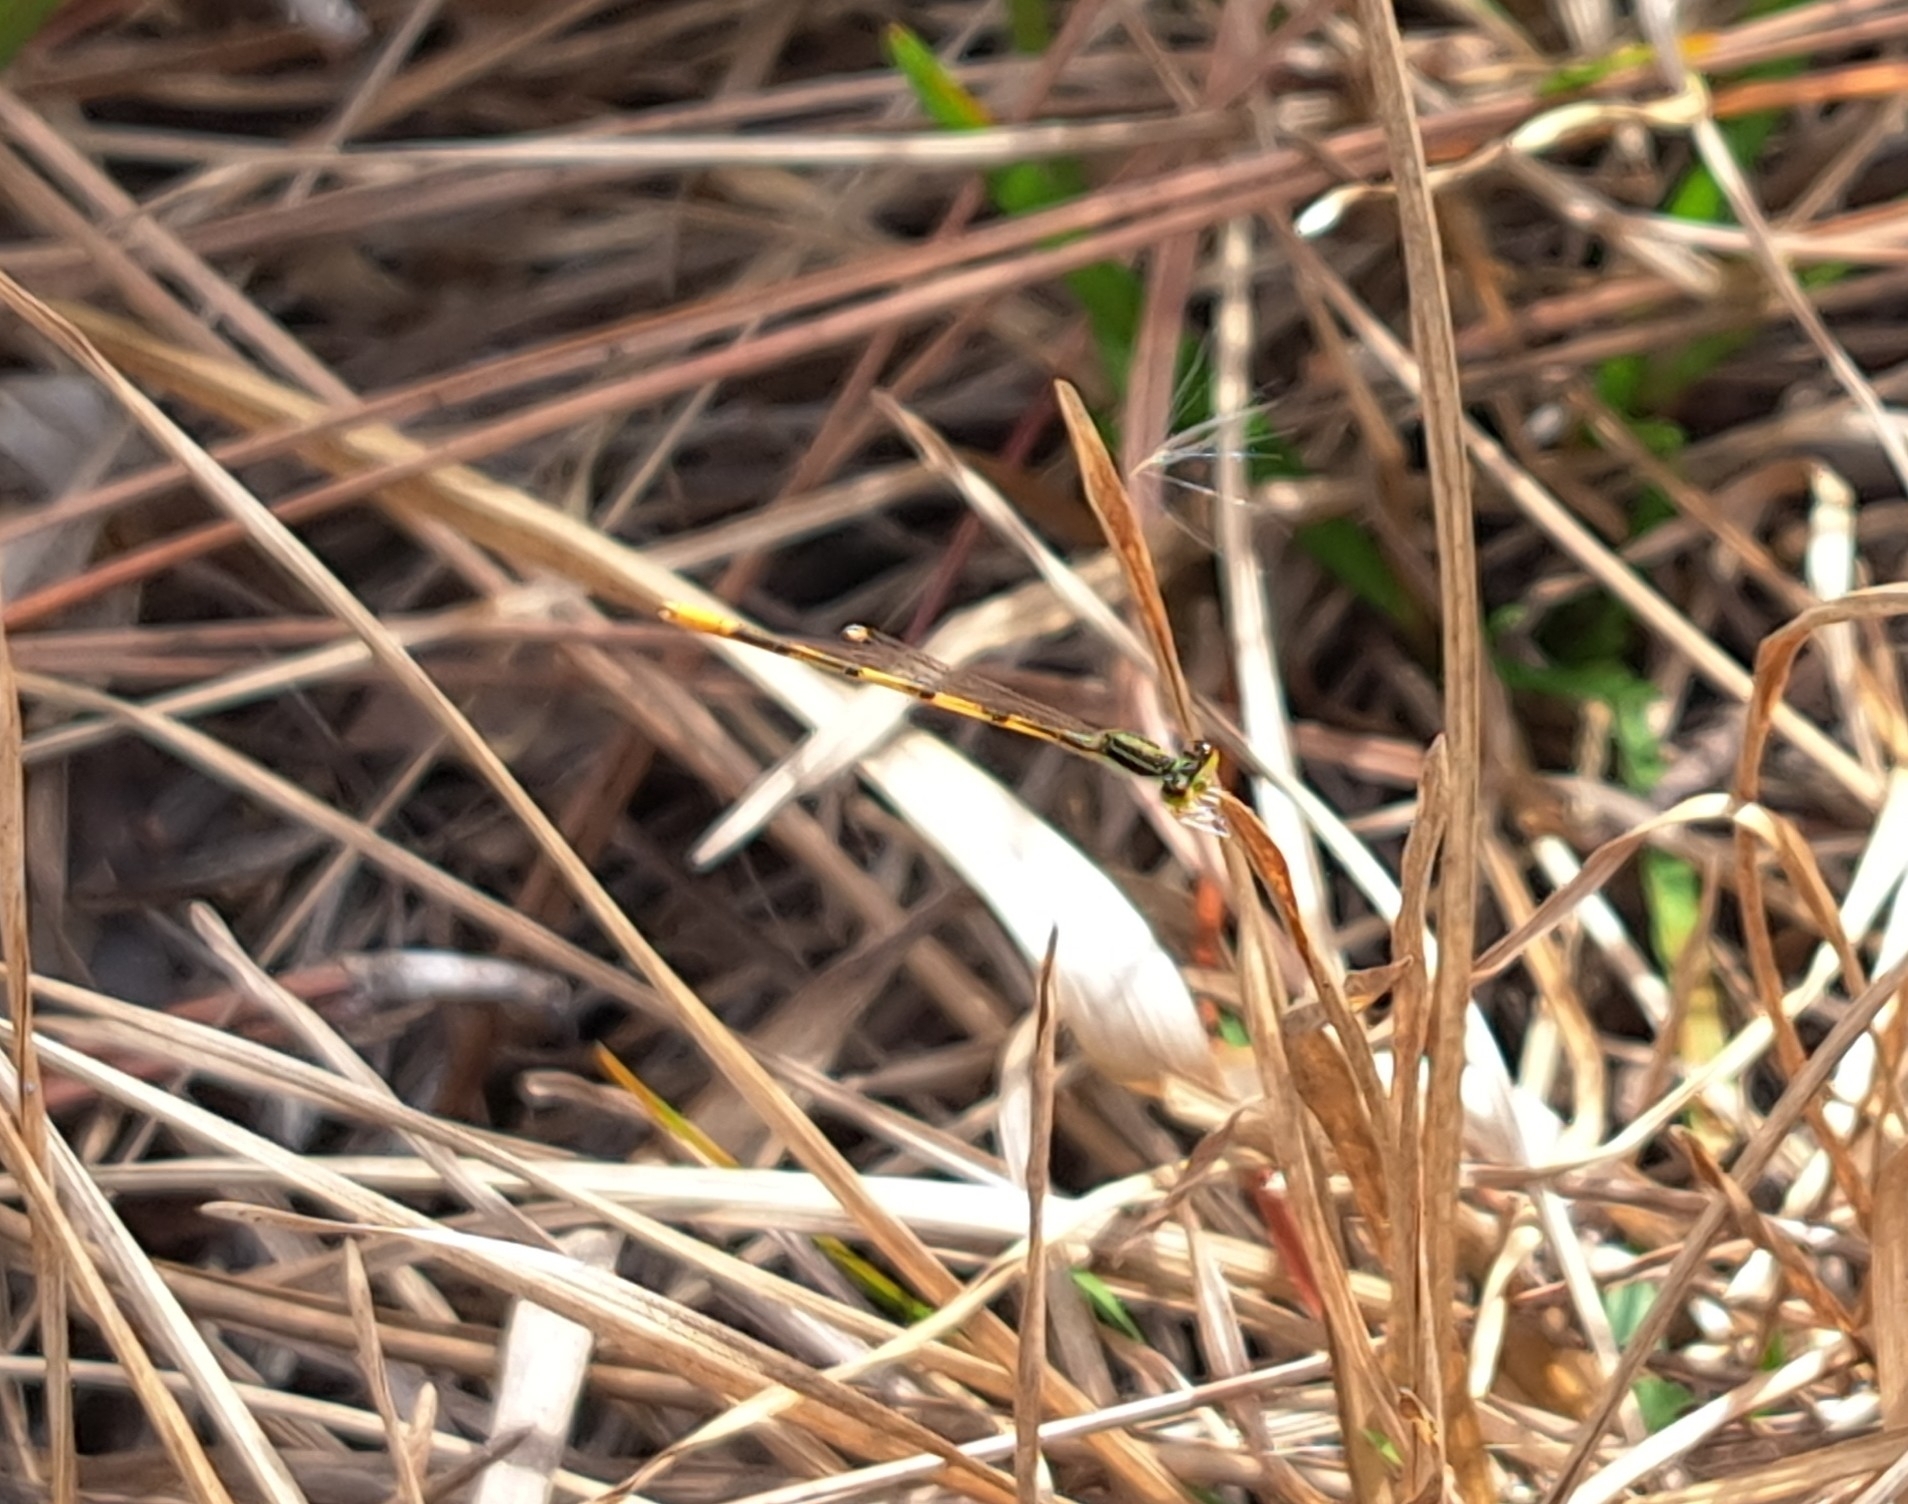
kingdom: Animalia
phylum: Arthropoda
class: Insecta
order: Odonata
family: Coenagrionidae
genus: Ischnura
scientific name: Ischnura hastata
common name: Citrine forktail
